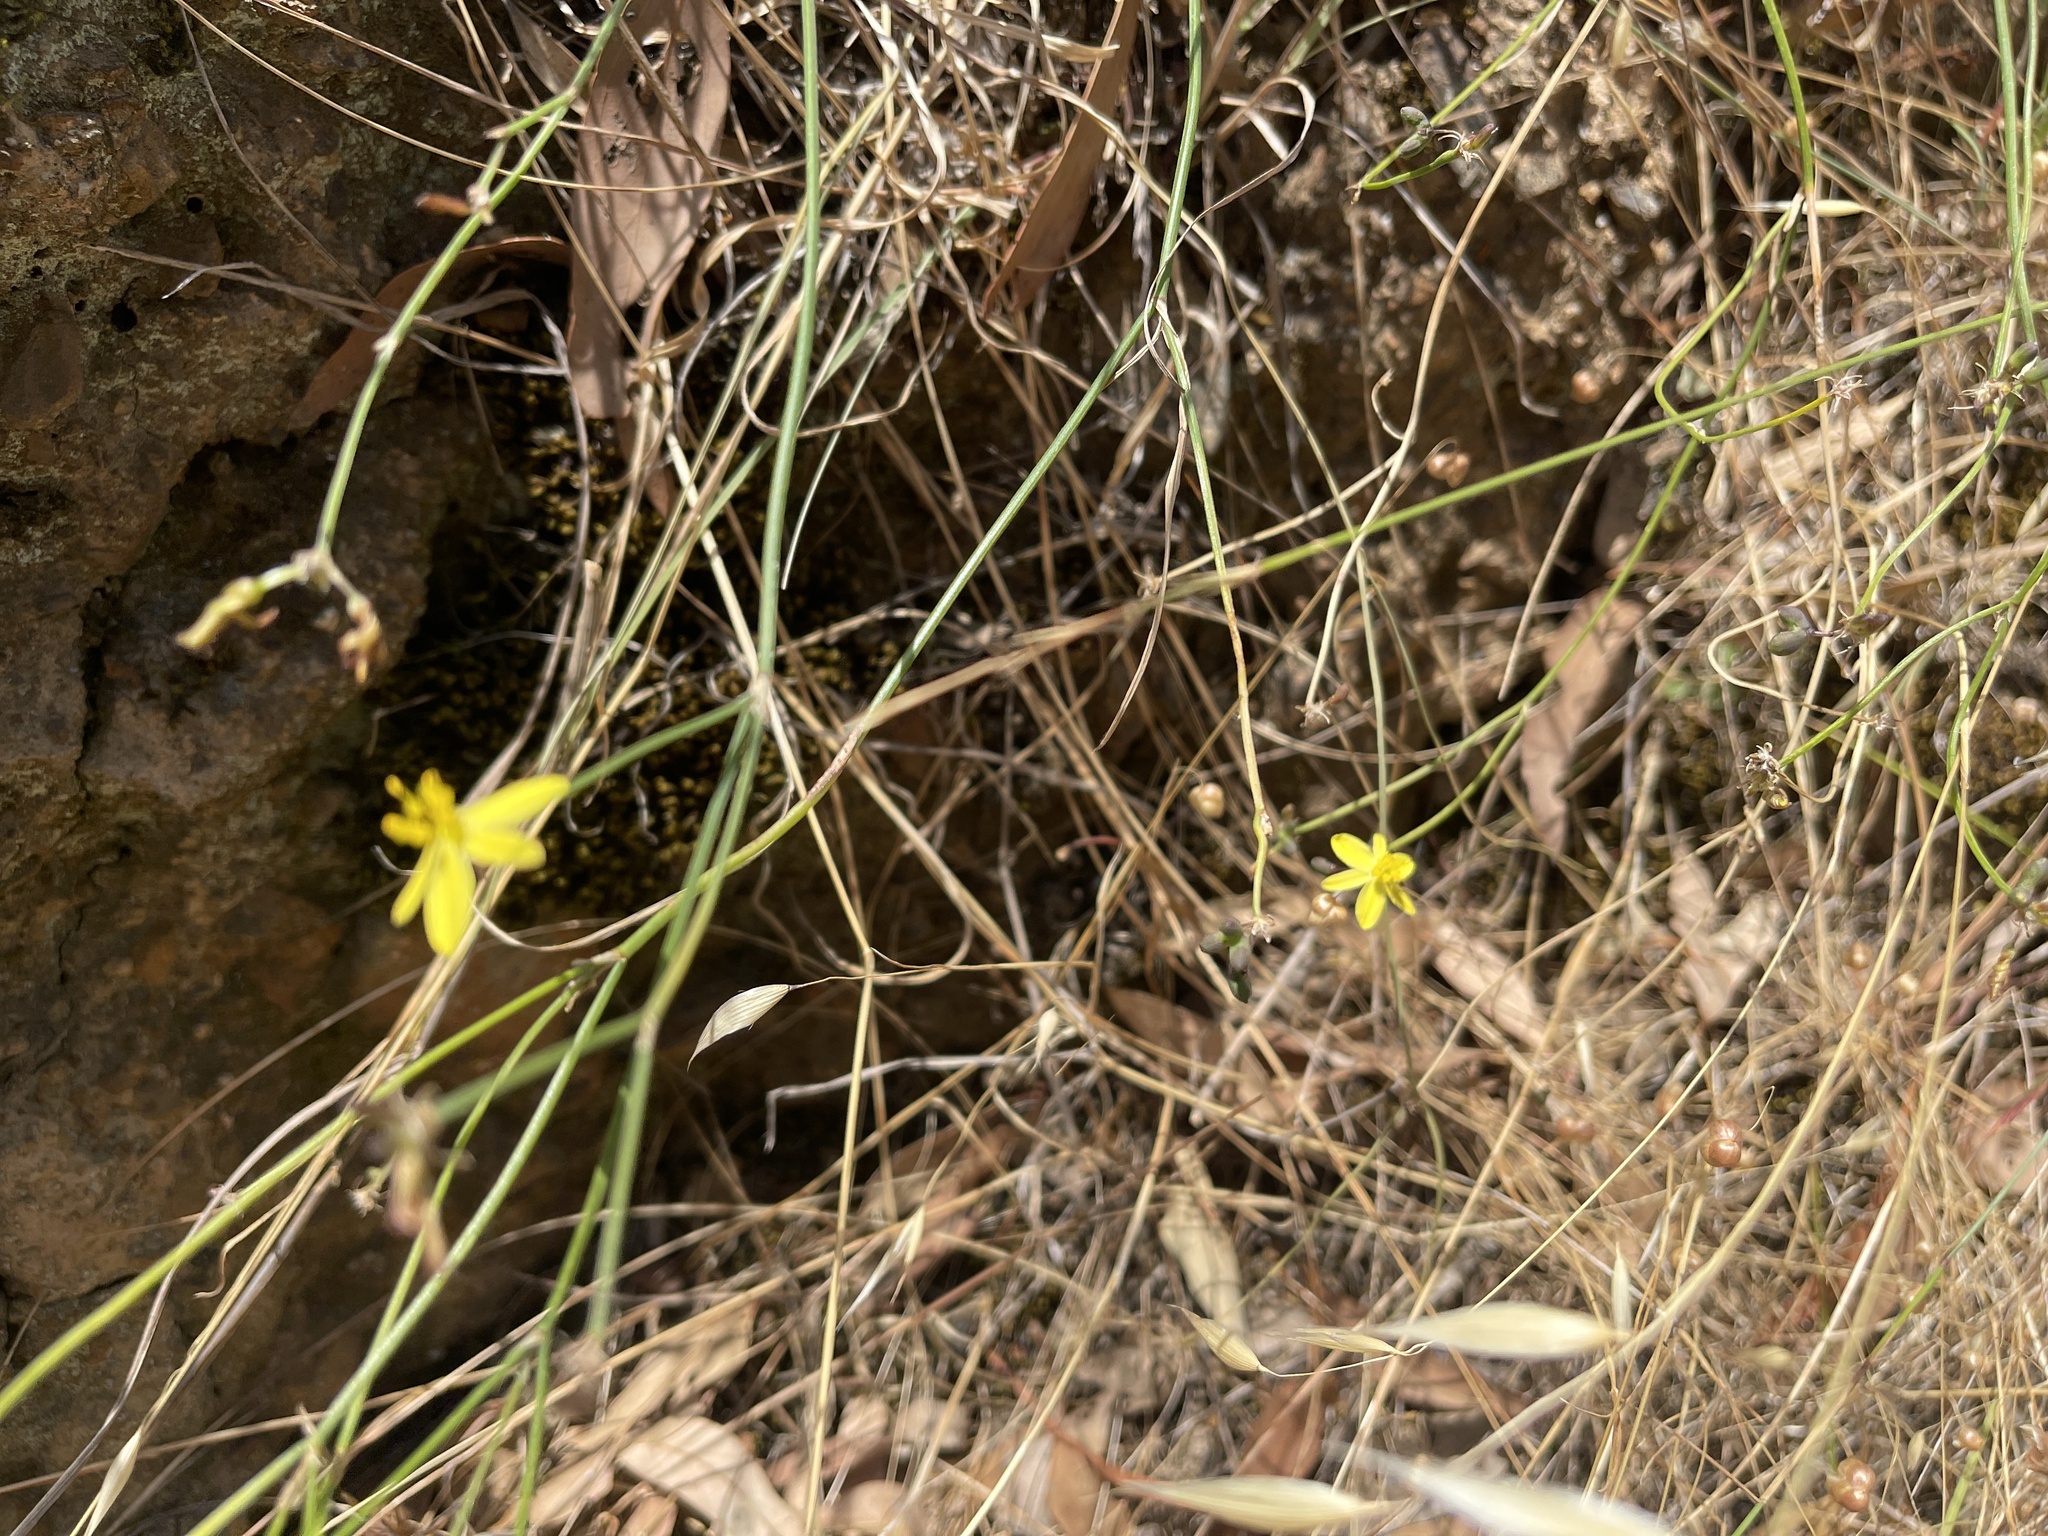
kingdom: Plantae
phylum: Tracheophyta
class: Liliopsida
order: Asparagales
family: Asphodelaceae
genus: Tricoryne
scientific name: Tricoryne elatior
